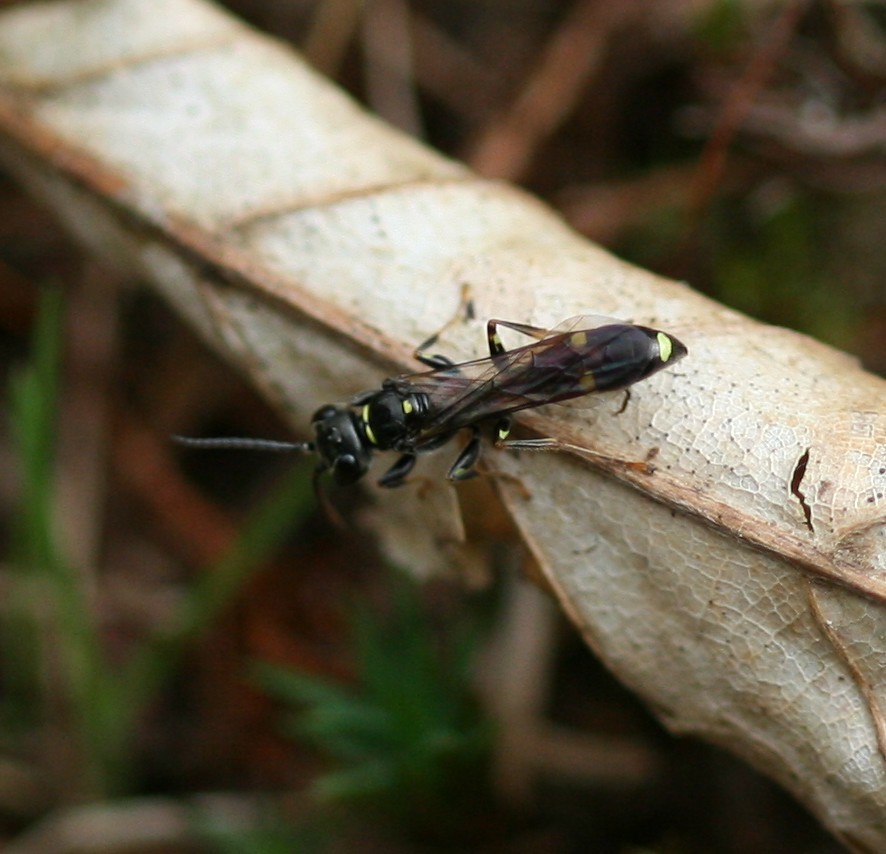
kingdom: Animalia
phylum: Arthropoda
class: Insecta
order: Hymenoptera
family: Crabronidae
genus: Mellinus
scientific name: Mellinus arvensis
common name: Field digger wasp
